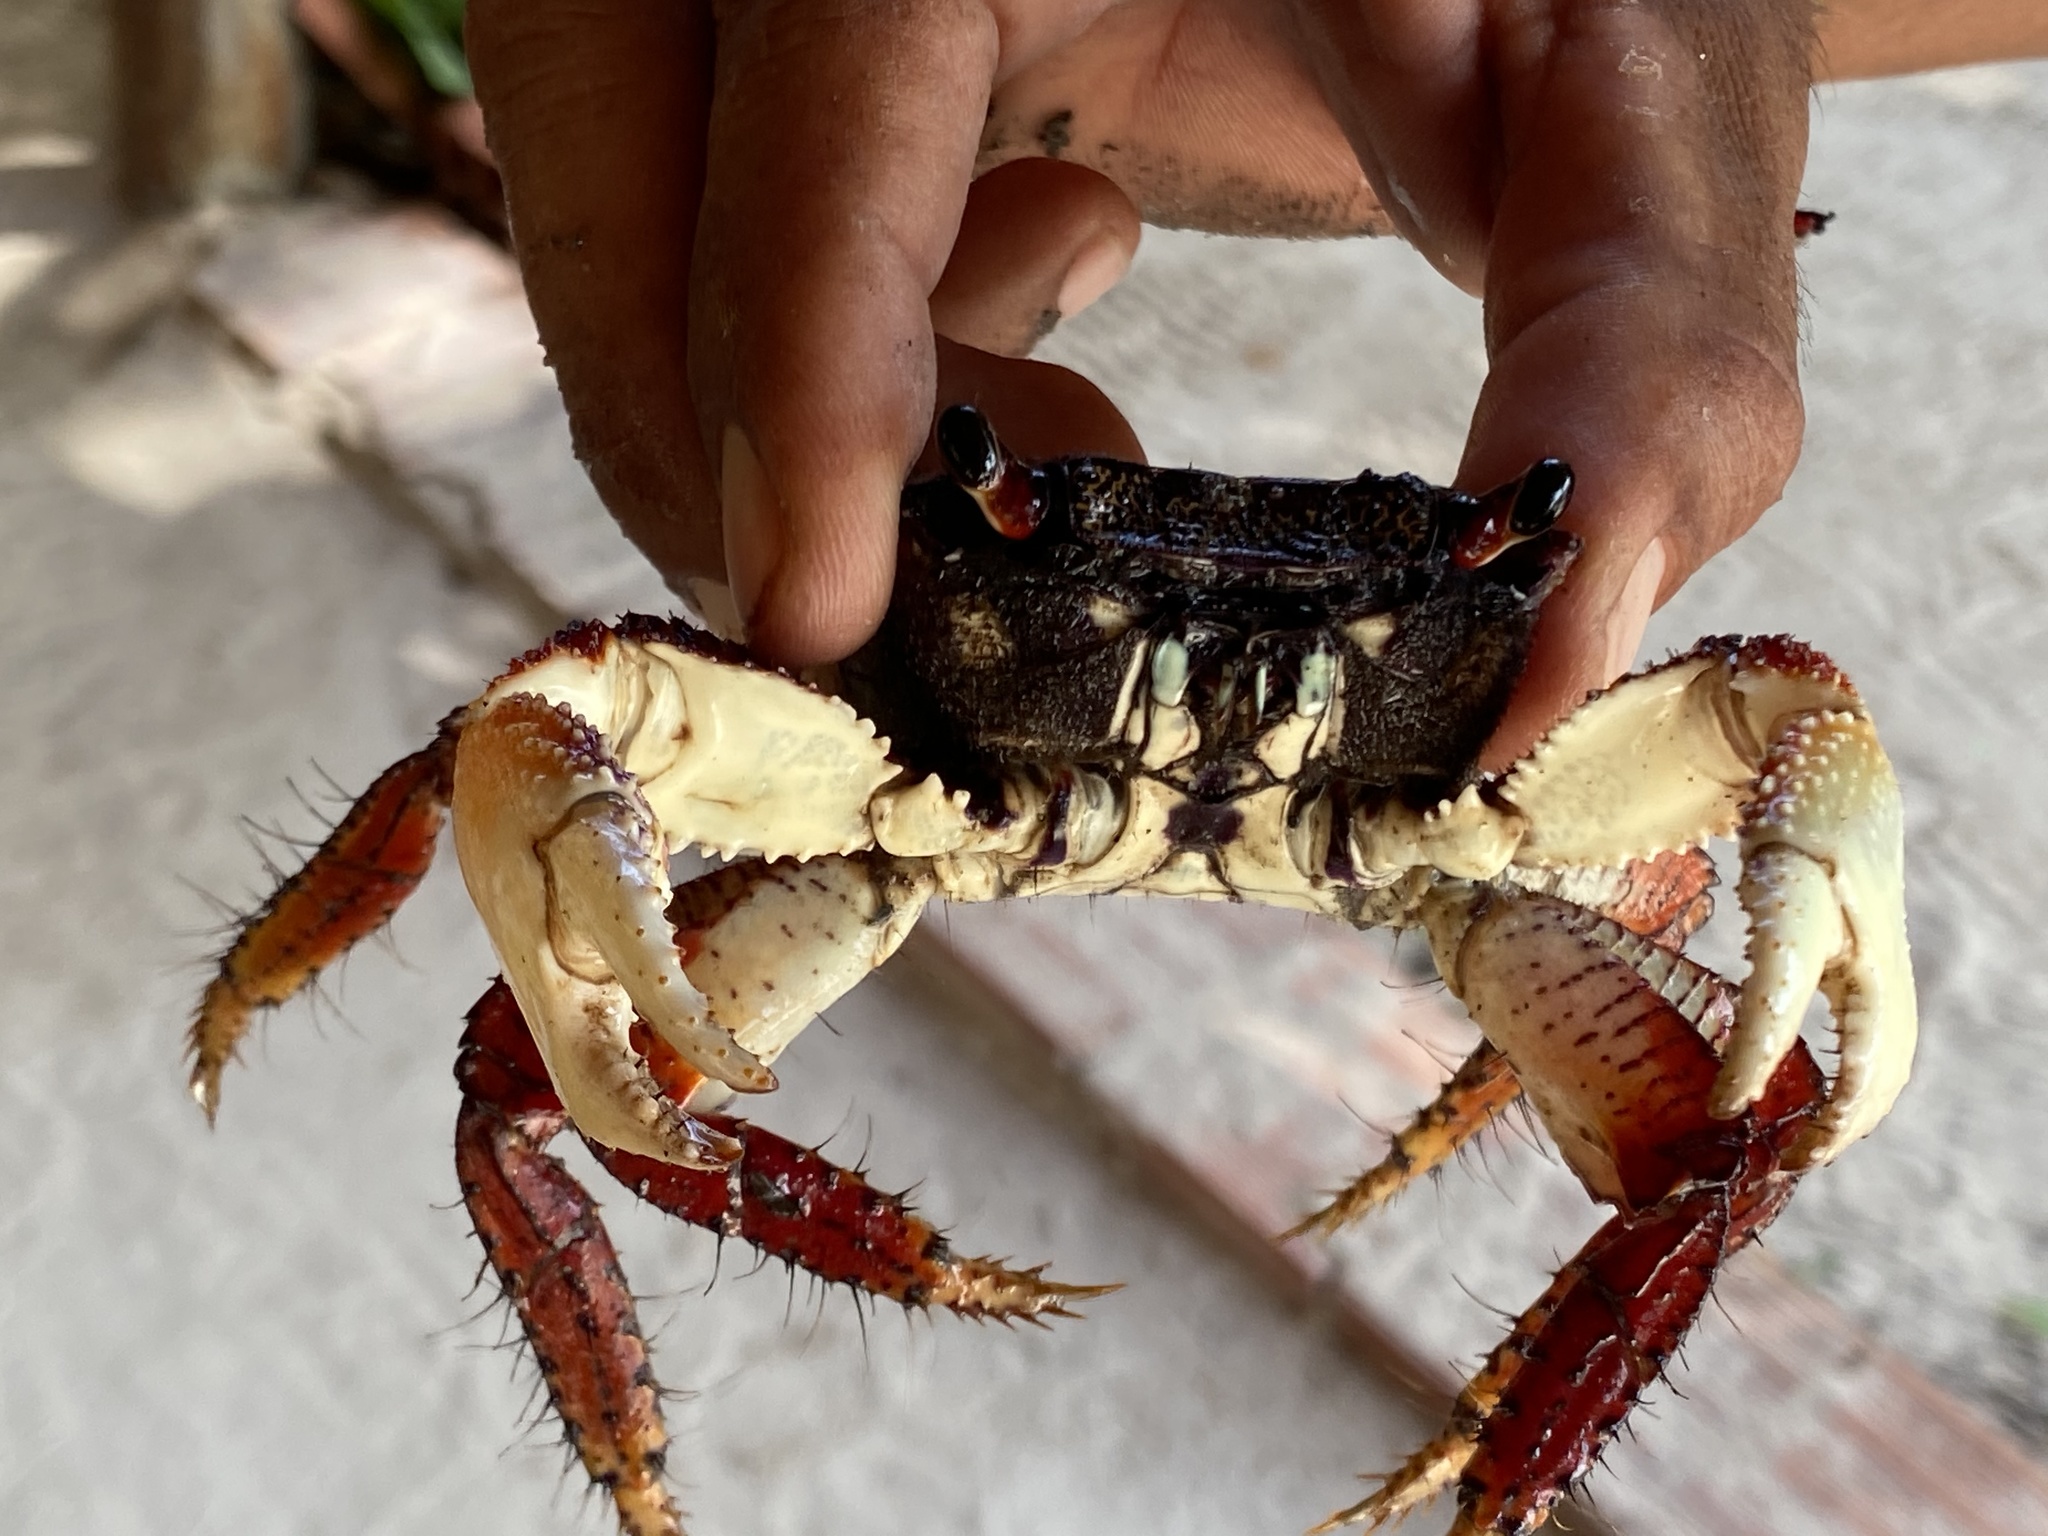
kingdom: Animalia
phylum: Arthropoda
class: Malacostraca
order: Decapoda
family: Grapsidae
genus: Goniopsis
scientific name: Goniopsis cruentata
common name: Mangrove crab
